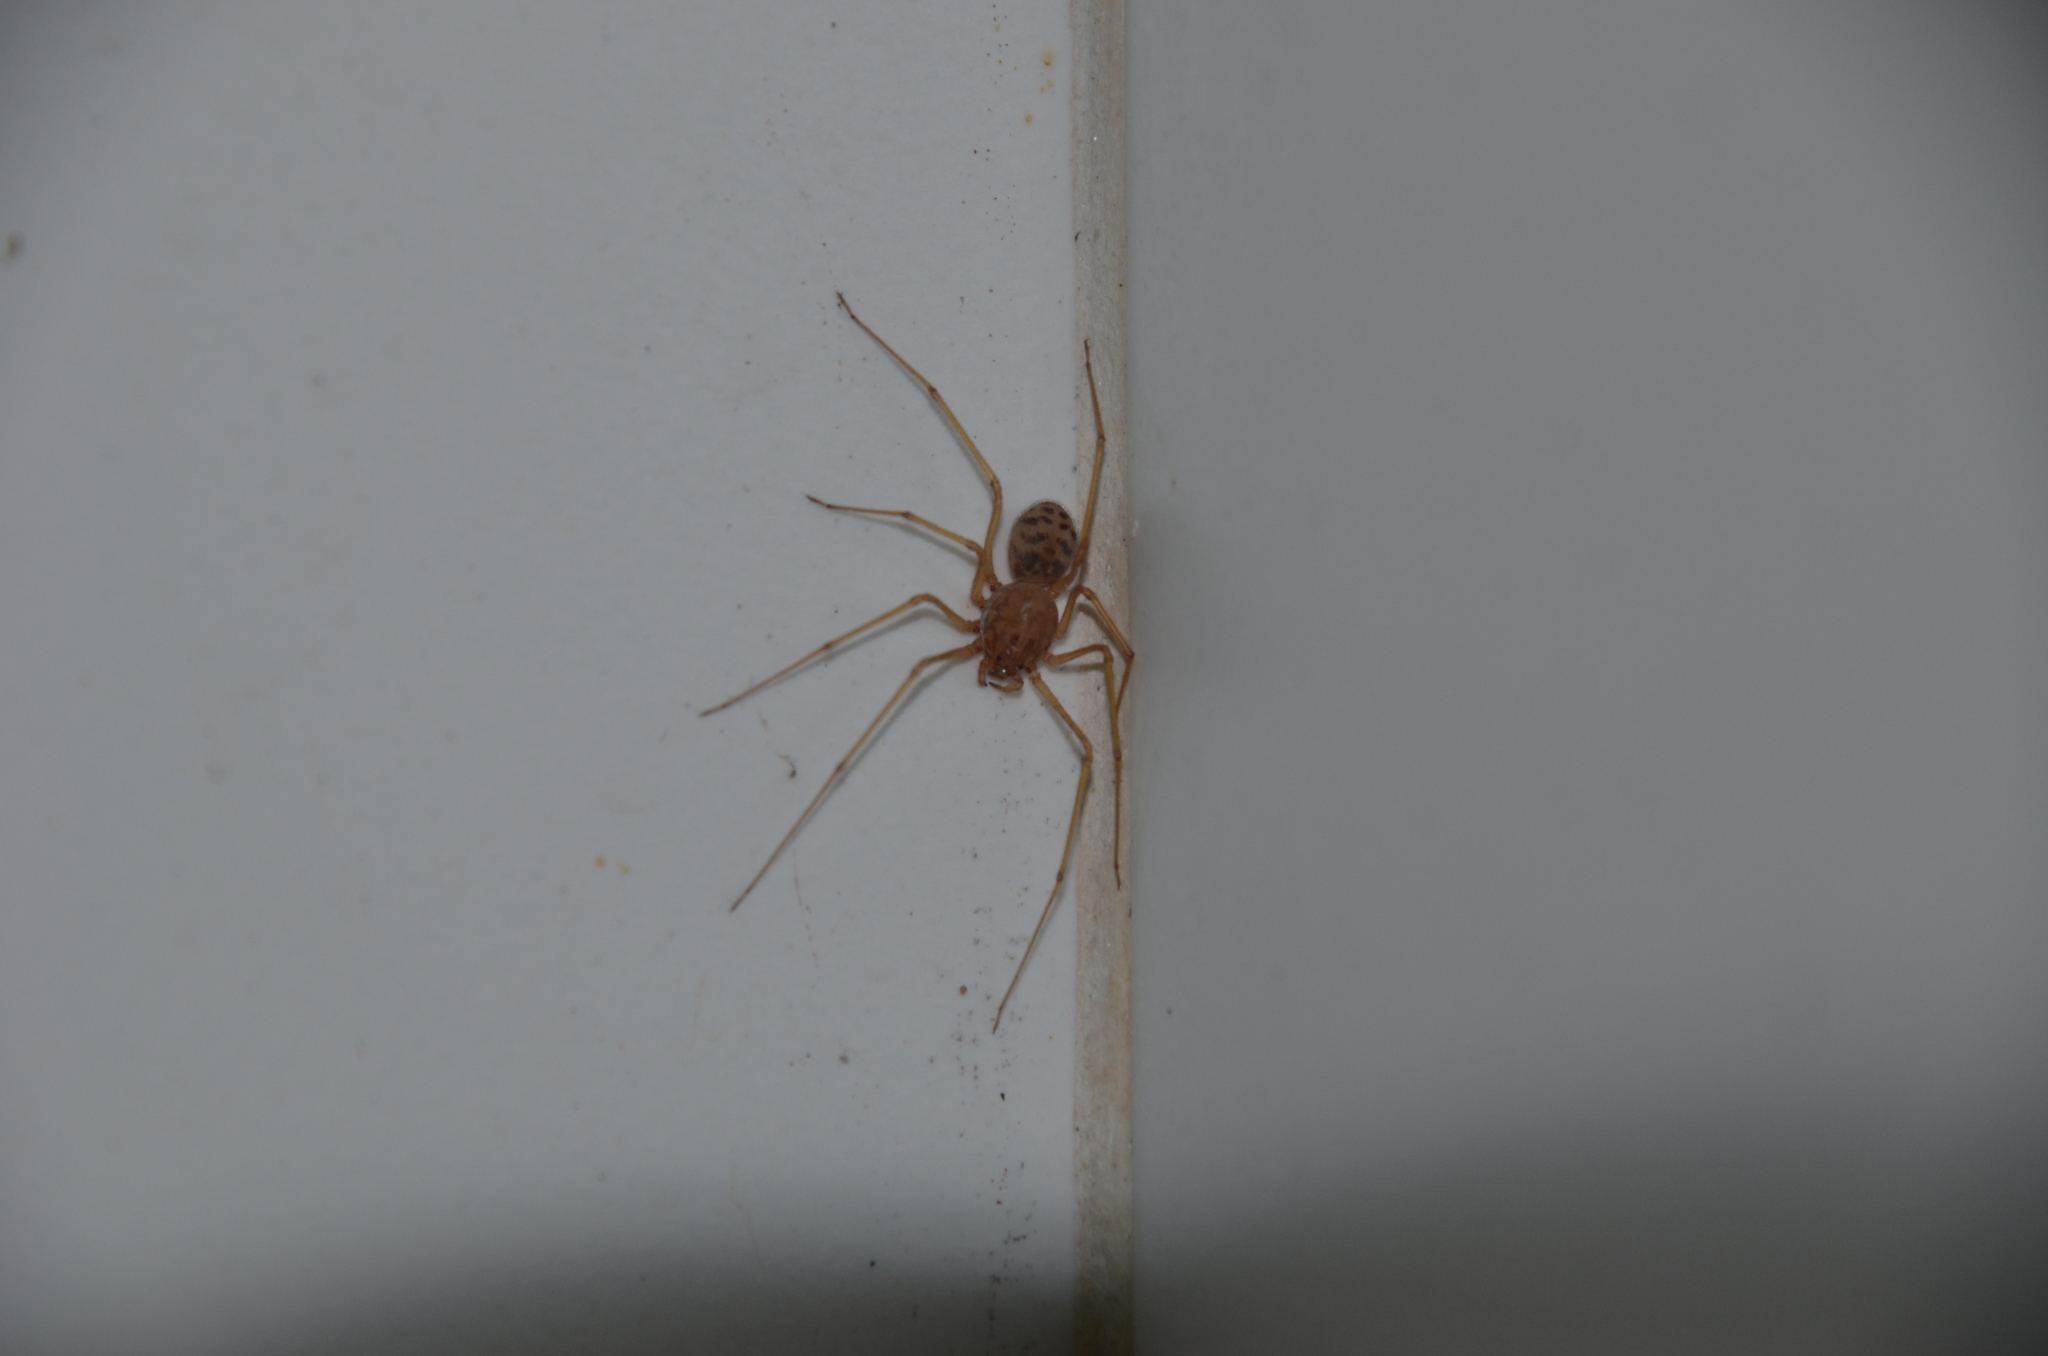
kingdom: Animalia
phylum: Arthropoda
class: Arachnida
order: Araneae
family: Scytodidae
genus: Scytodes
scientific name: Scytodes univittata
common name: Spitting spider
